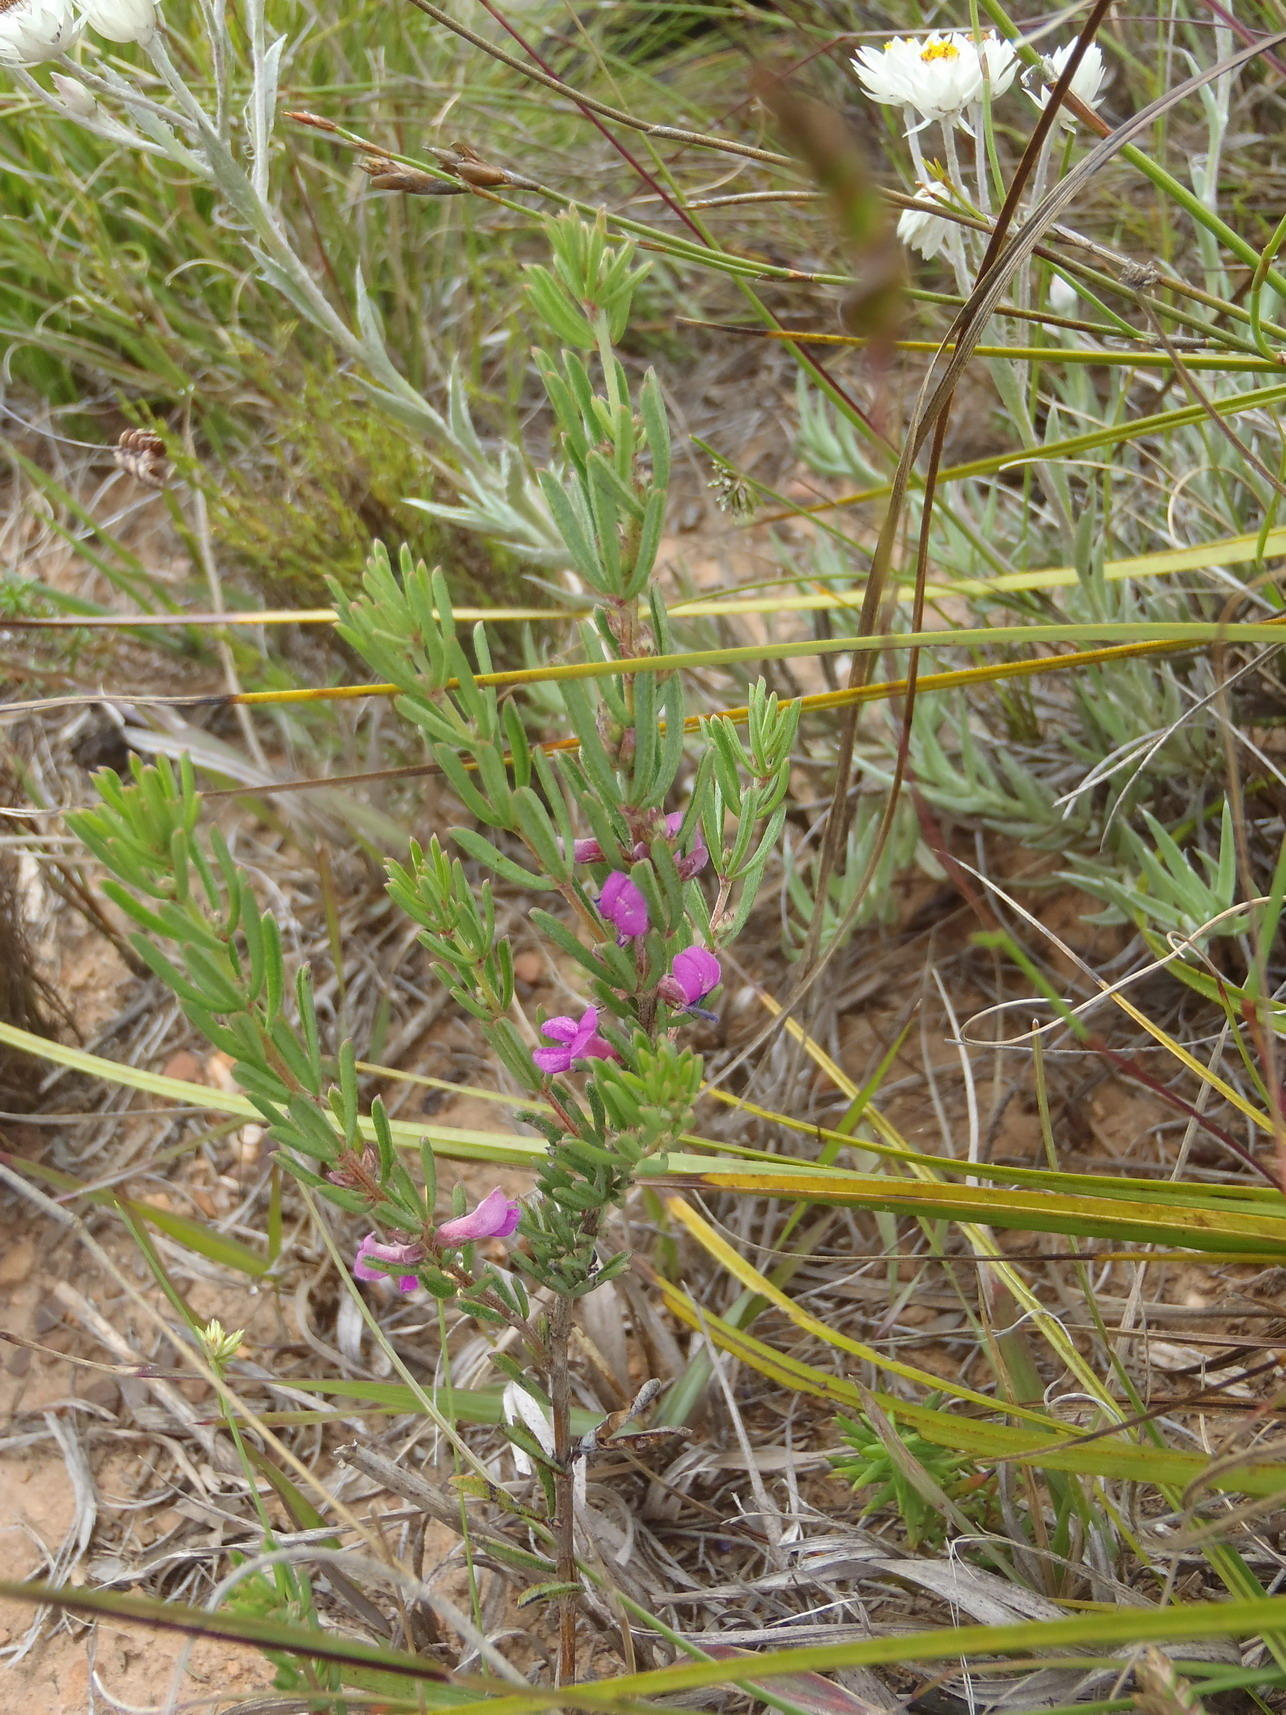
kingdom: Plantae
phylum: Tracheophyta
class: Magnoliopsida
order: Fabales
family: Fabaceae
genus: Indigofera
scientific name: Indigofera pappei
